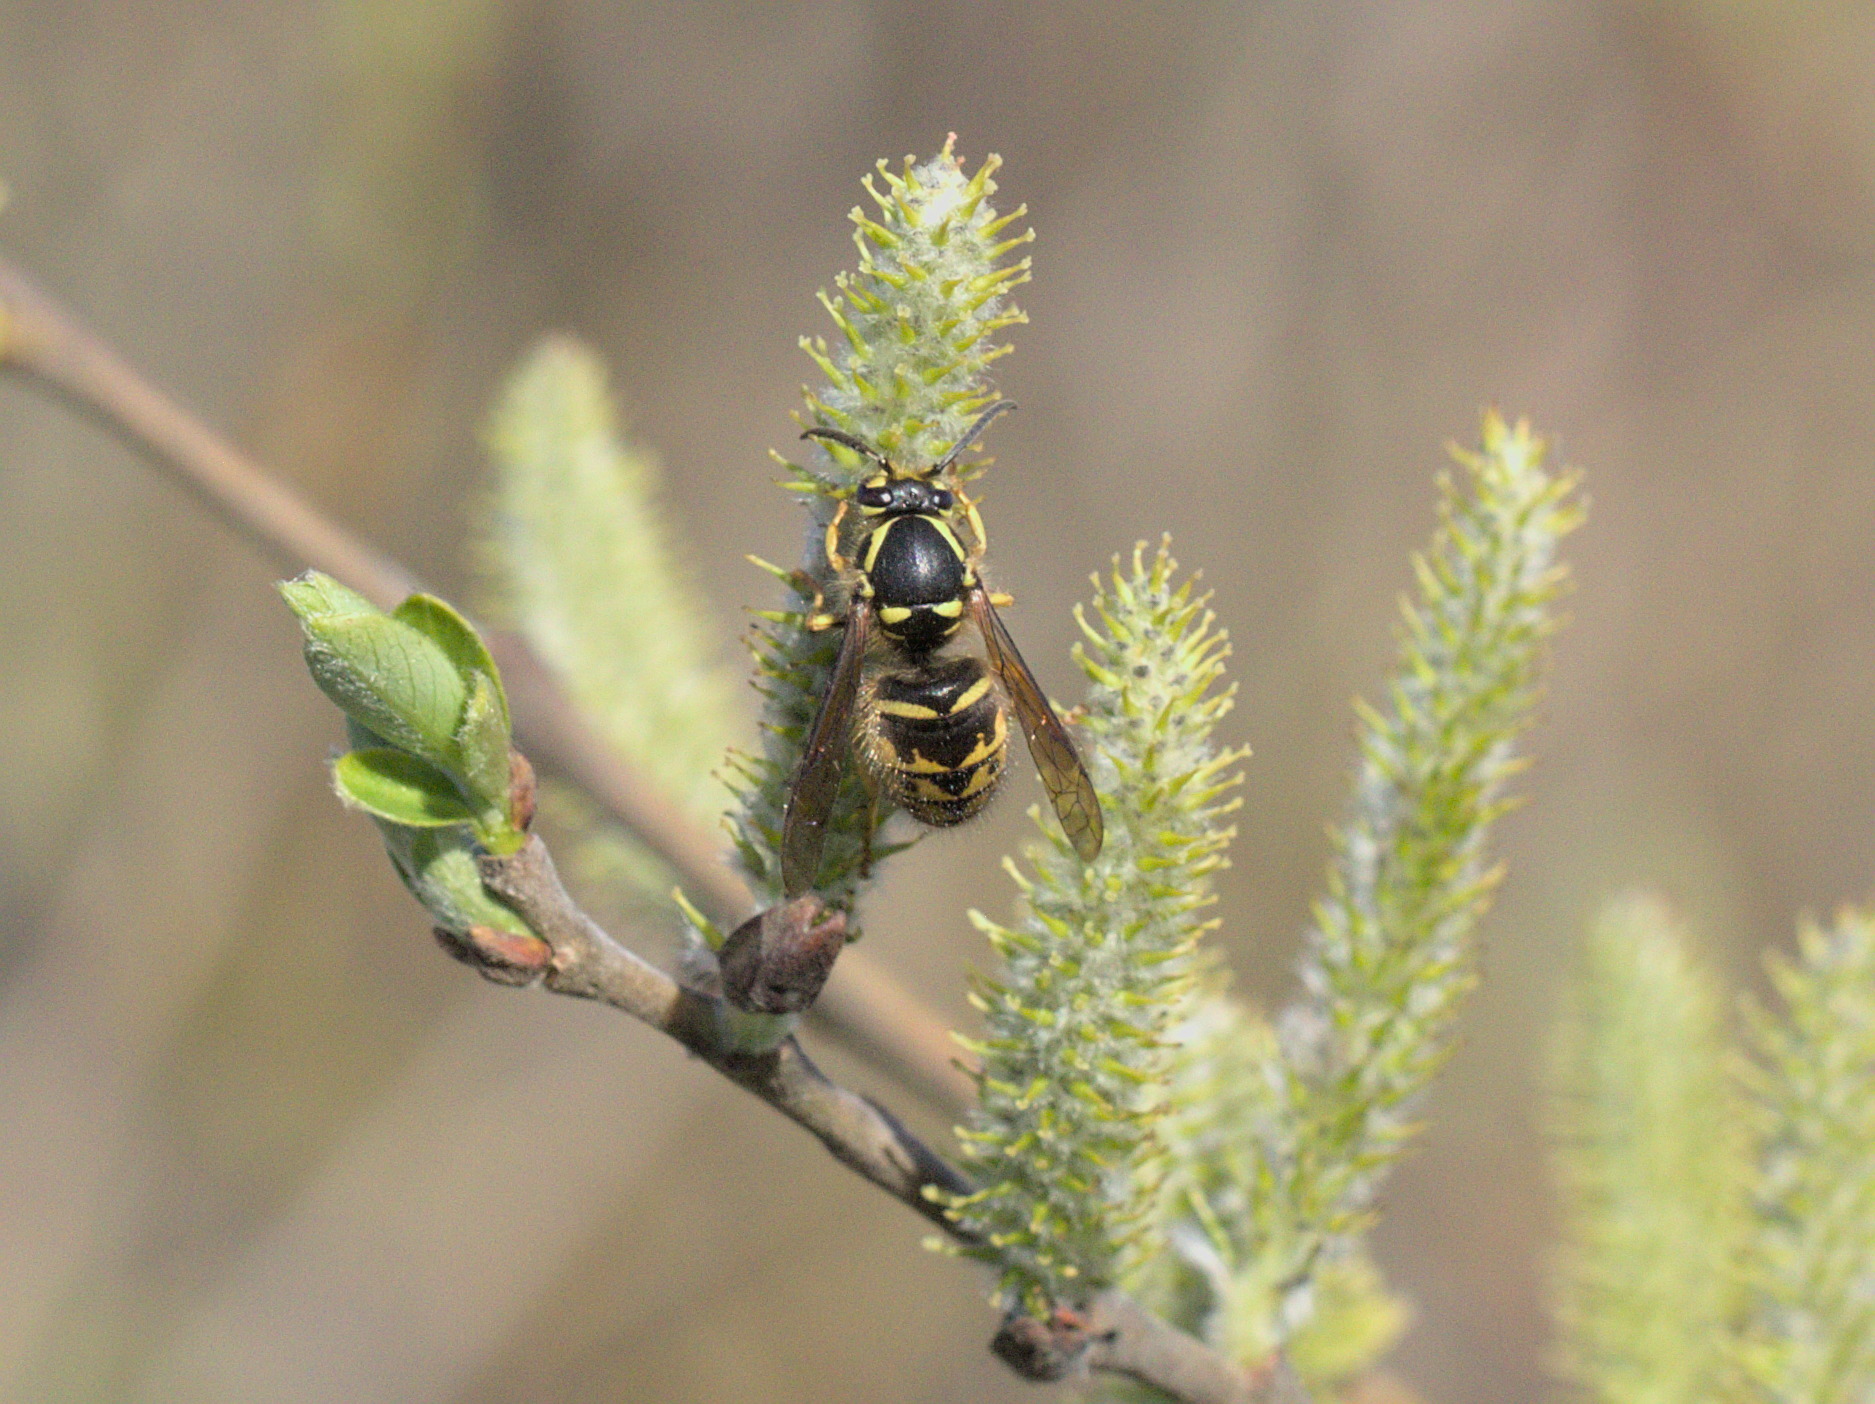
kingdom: Animalia
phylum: Arthropoda
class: Insecta
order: Hymenoptera
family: Vespidae
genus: Dolichovespula
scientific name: Dolichovespula arenaria
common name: Aerial yellowjacket
